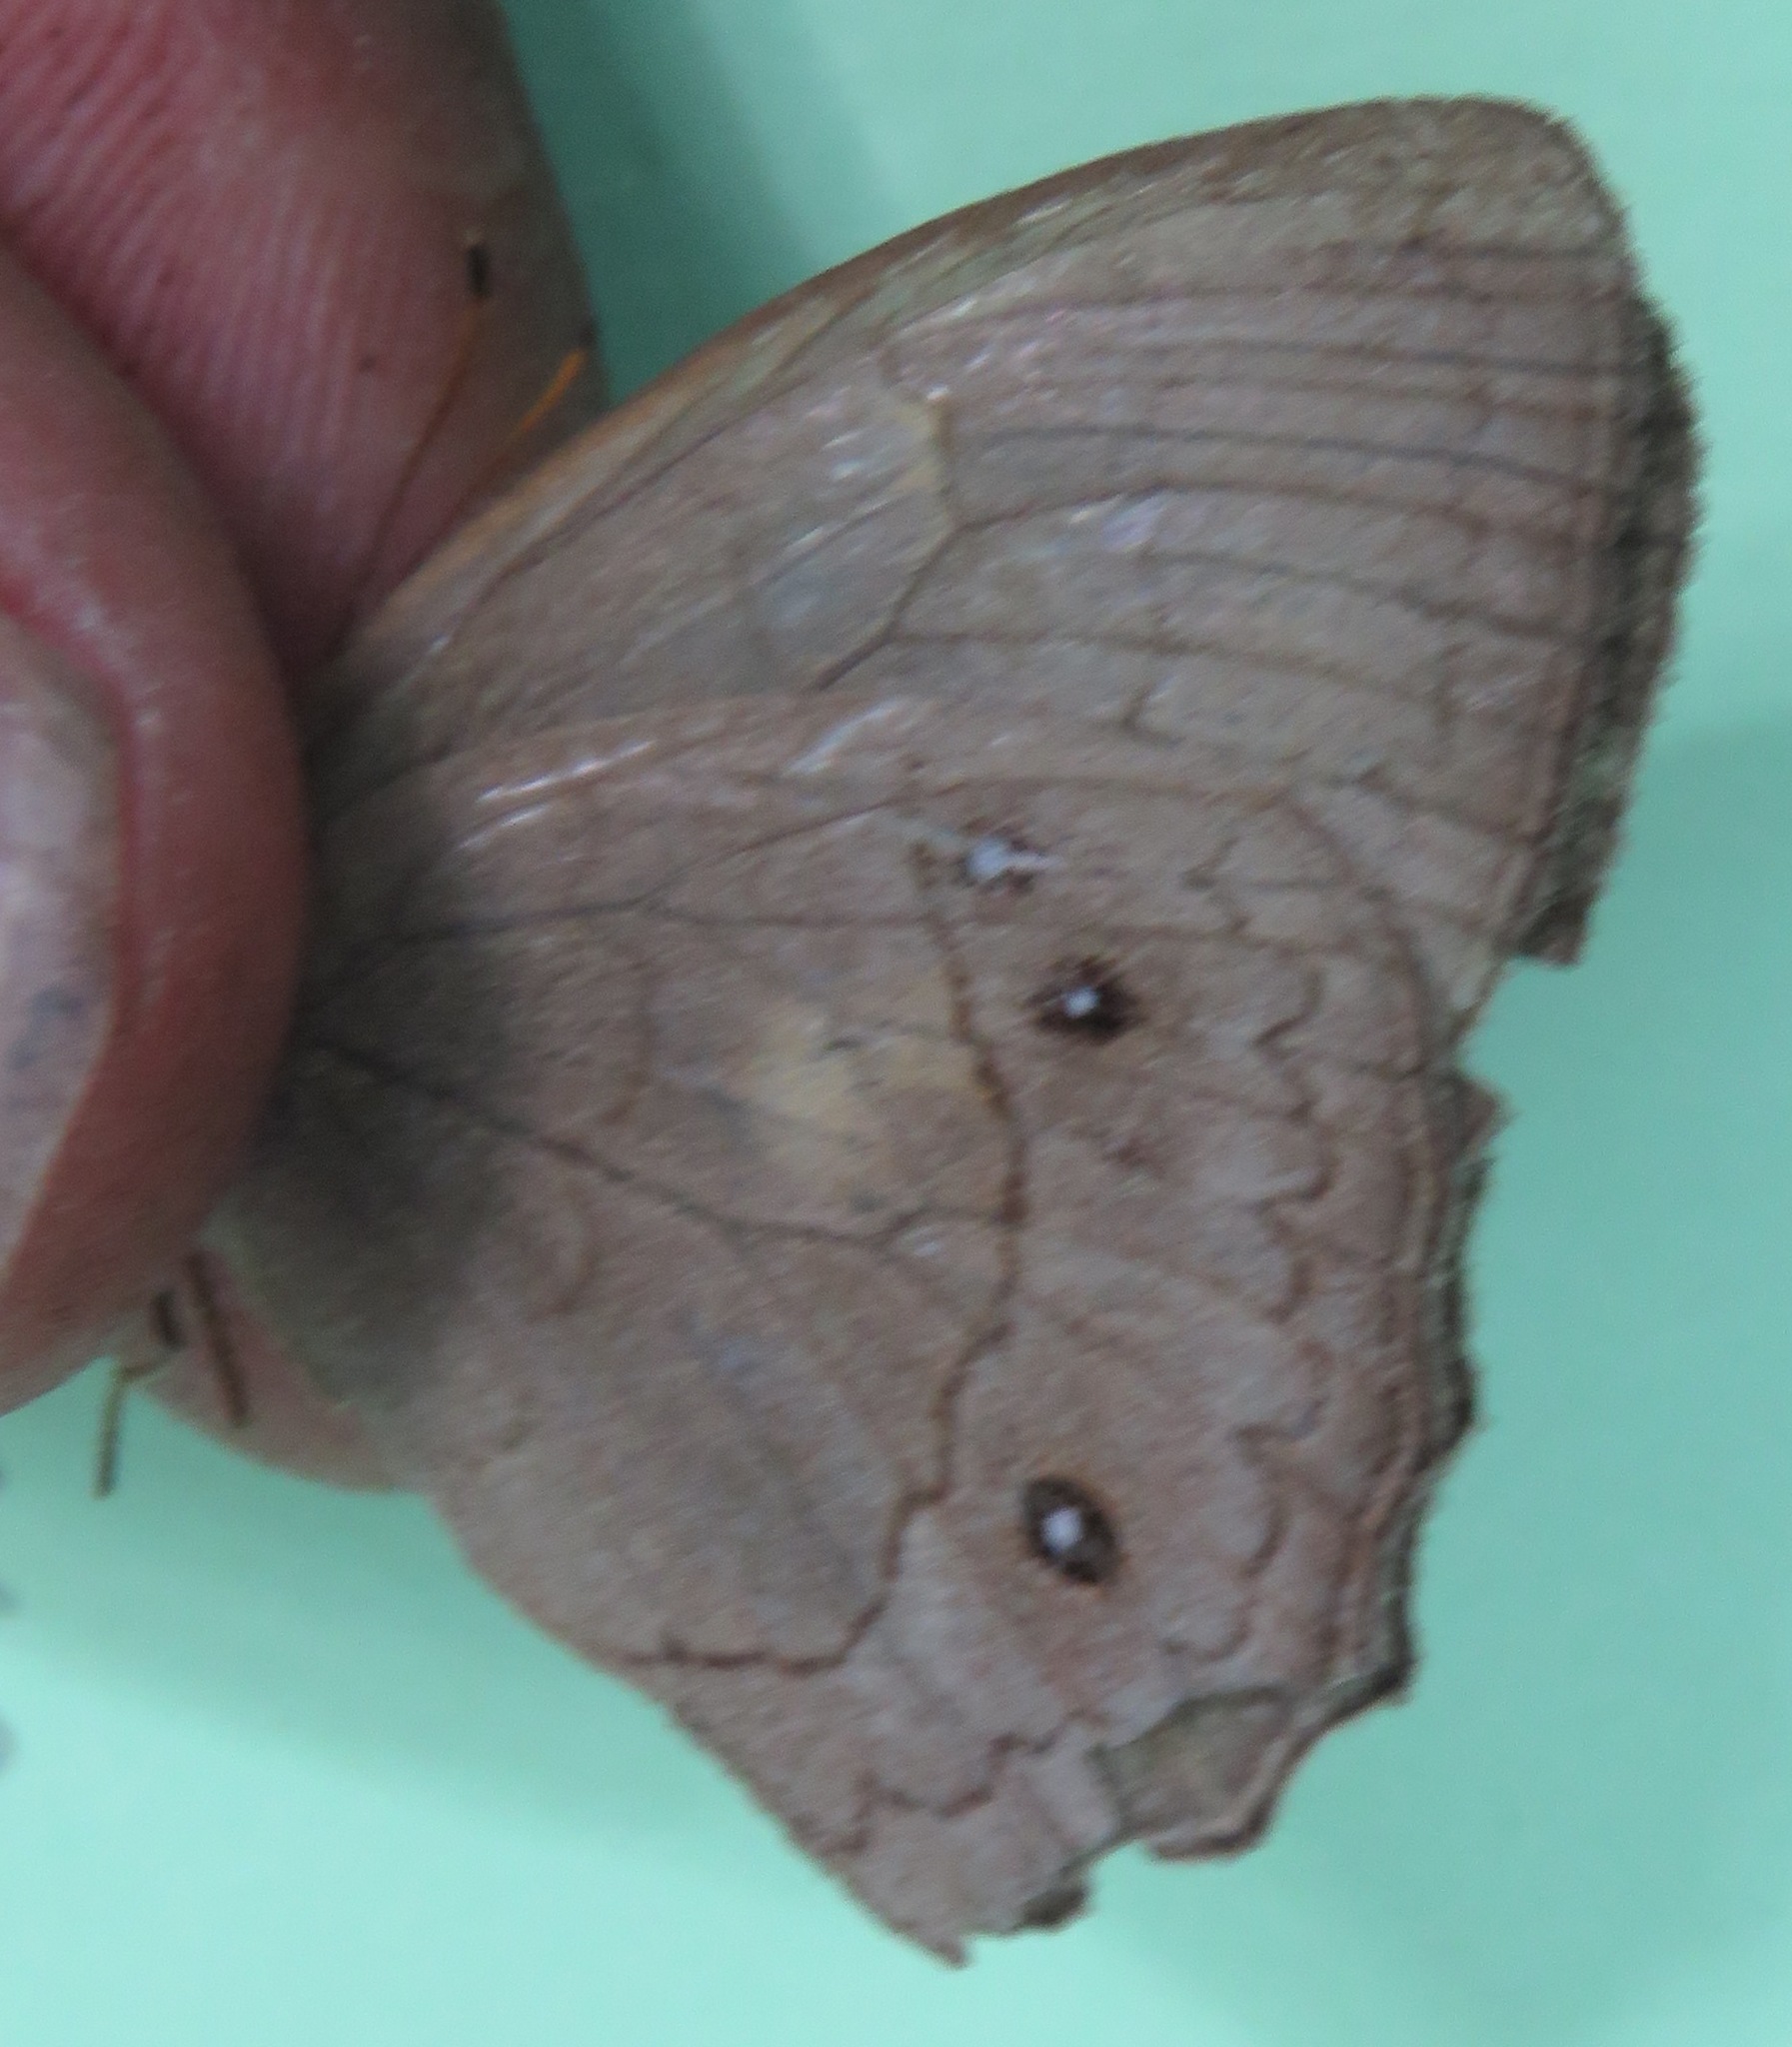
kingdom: Animalia
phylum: Arthropoda
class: Insecta
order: Lepidoptera
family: Nymphalidae
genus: Taygetina
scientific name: Taygetina kerea
